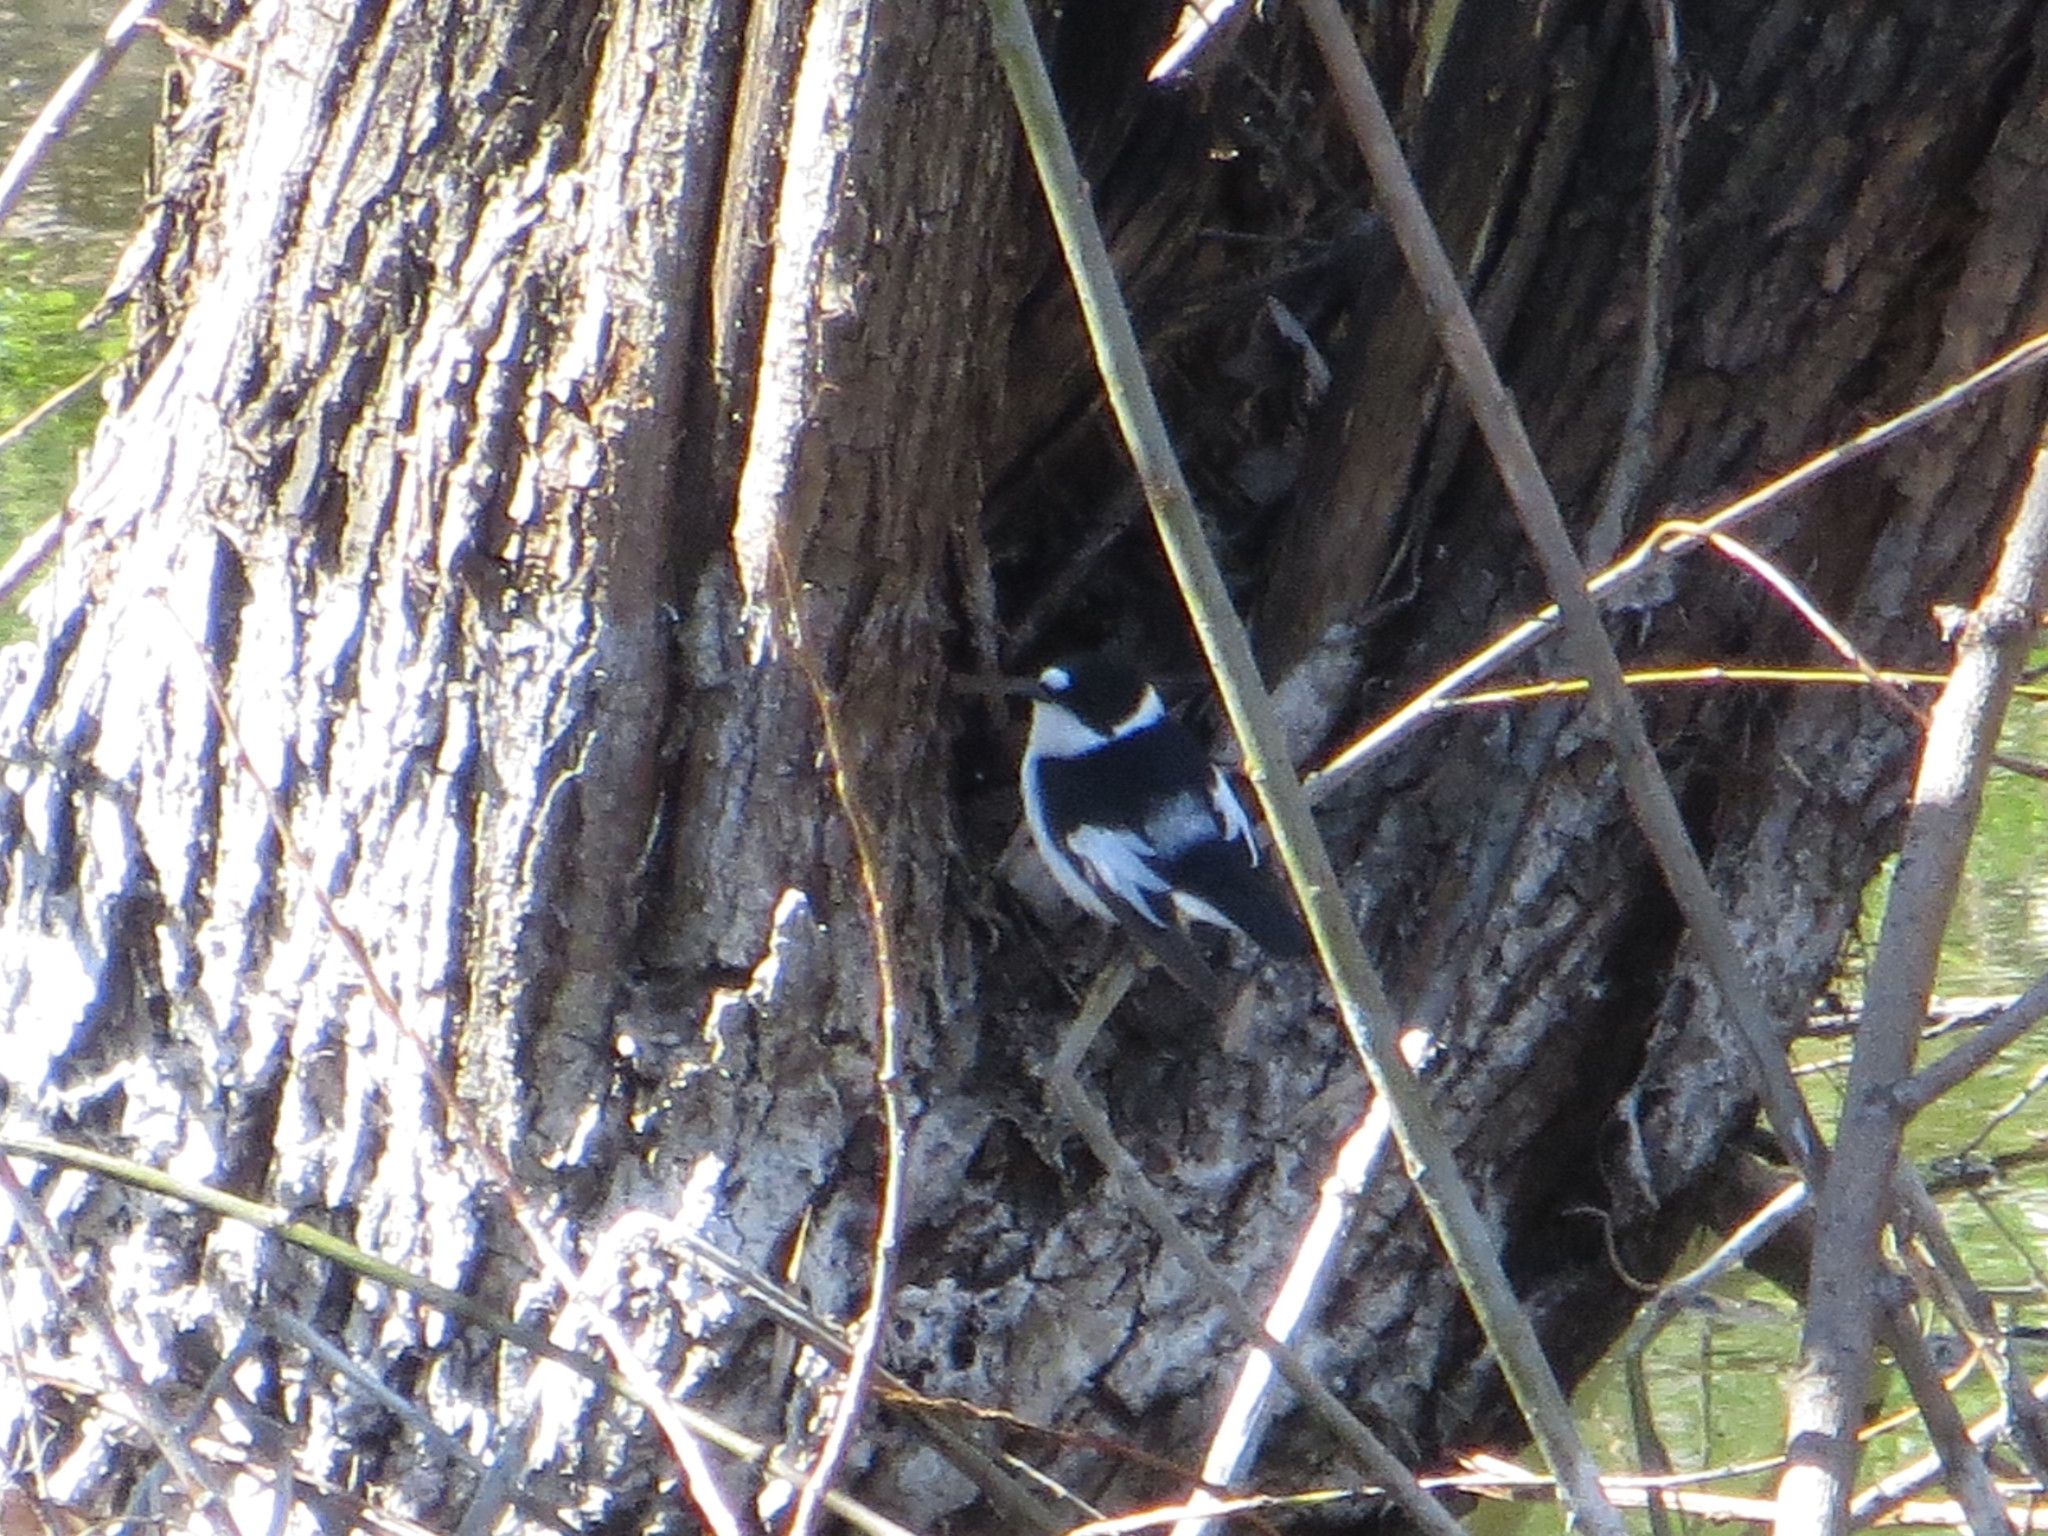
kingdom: Animalia
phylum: Chordata
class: Aves
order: Passeriformes
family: Muscicapidae
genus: Ficedula
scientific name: Ficedula albicollis
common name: Collared flycatcher
